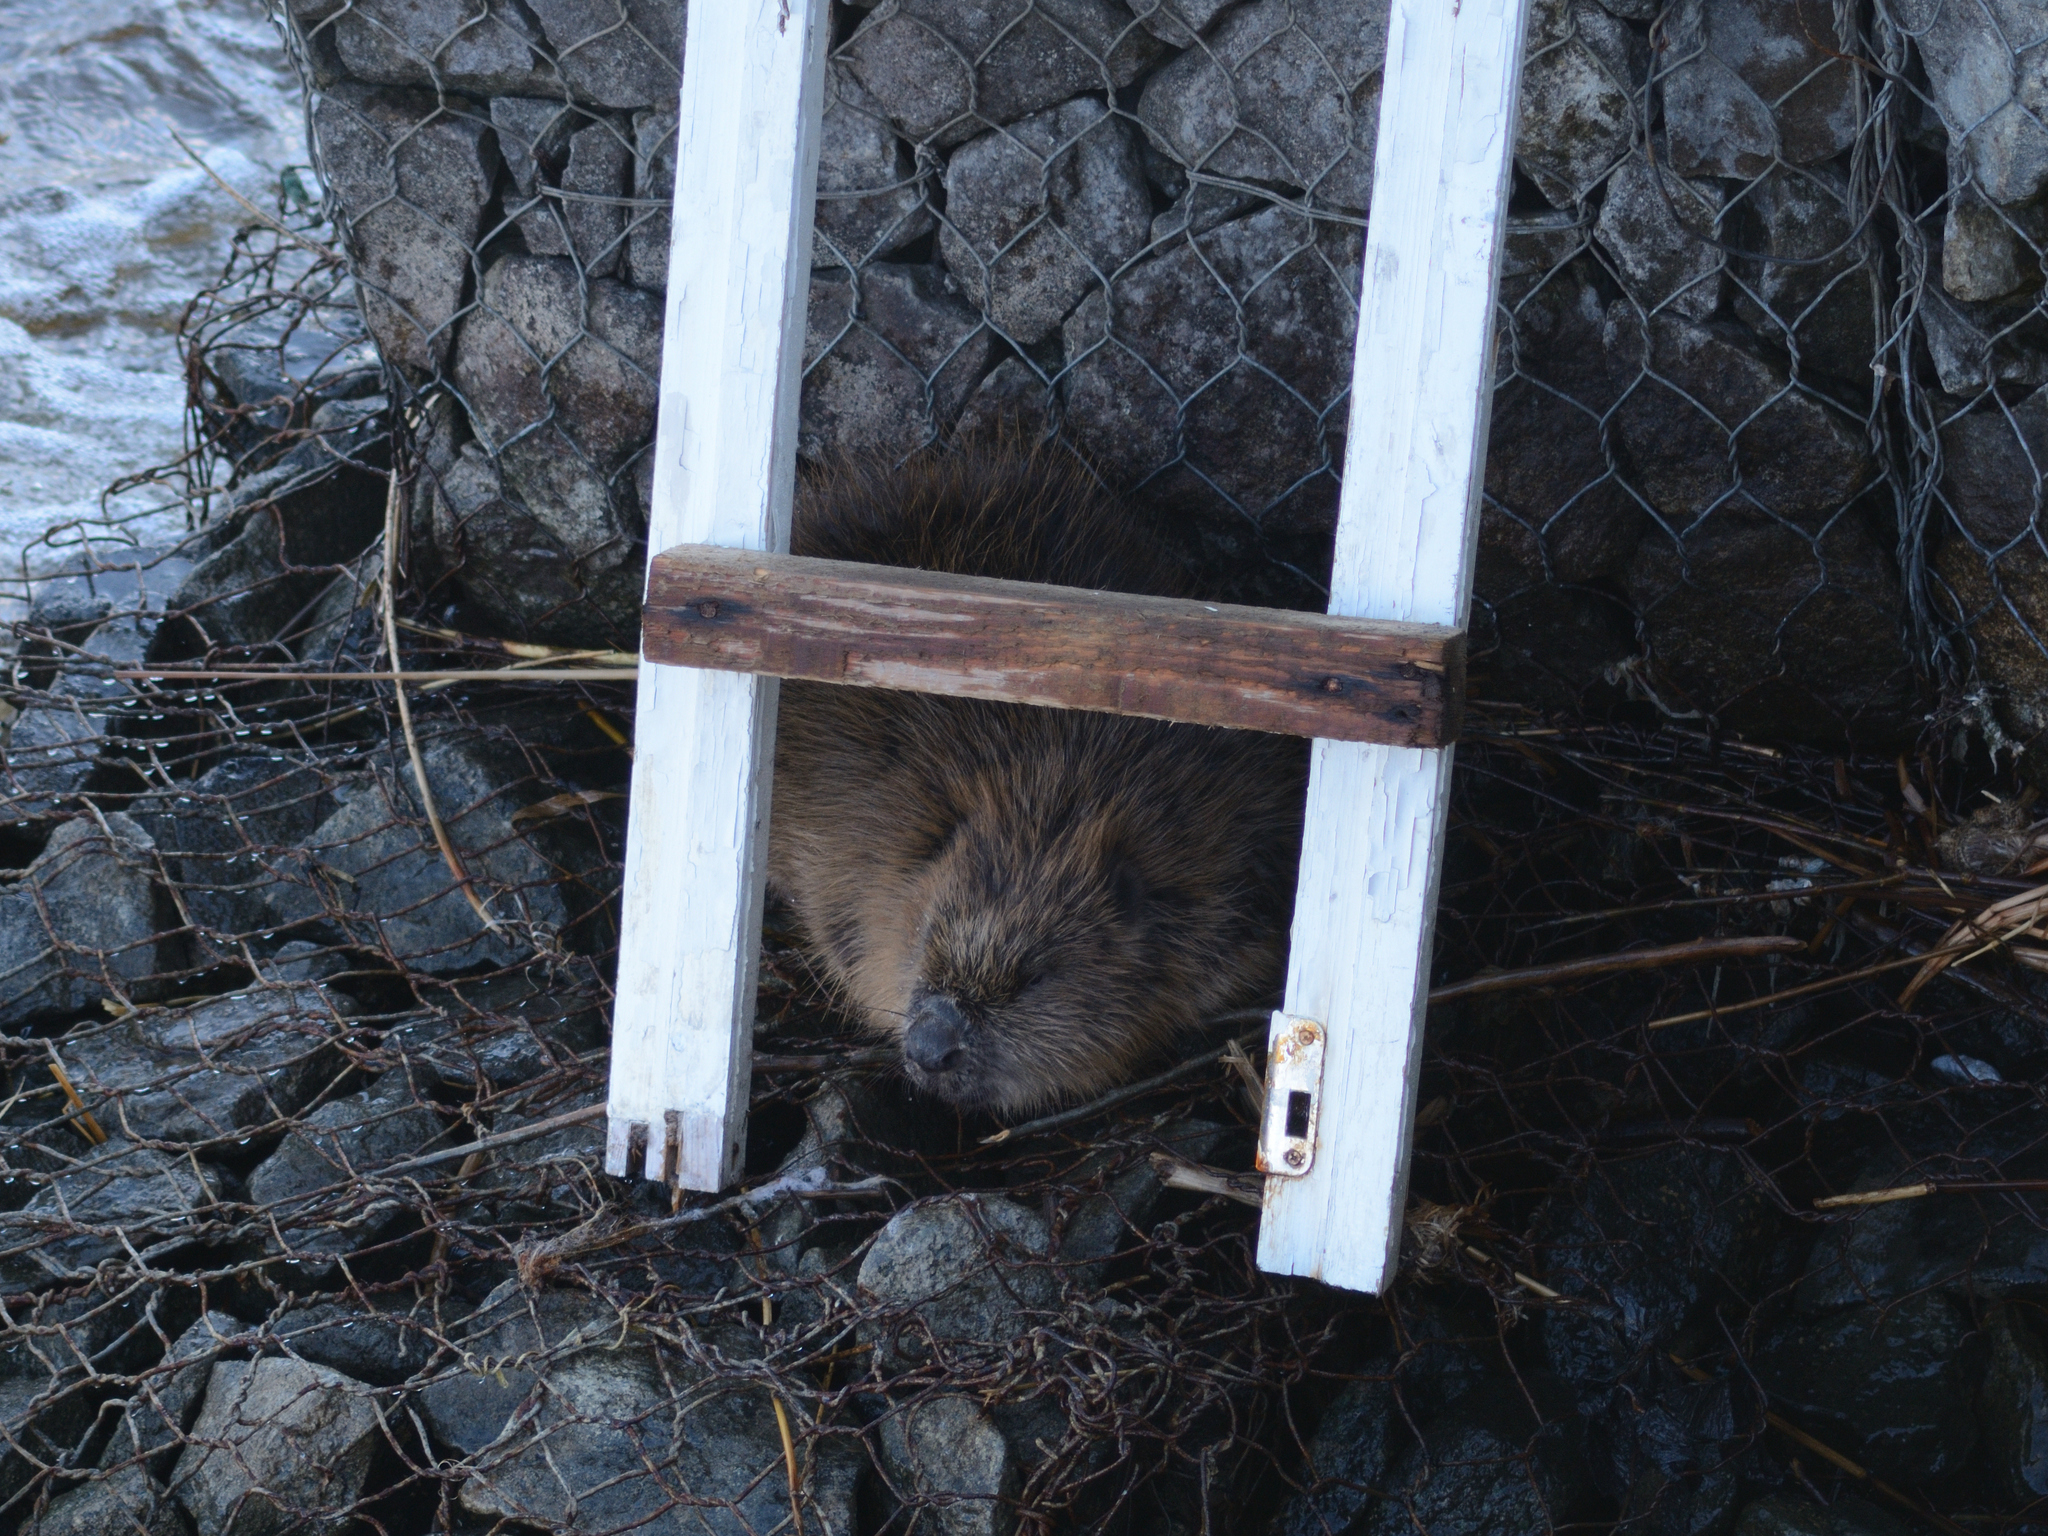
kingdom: Animalia
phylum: Chordata
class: Mammalia
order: Rodentia
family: Castoridae
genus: Castor
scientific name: Castor fiber
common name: Eurasian beaver
